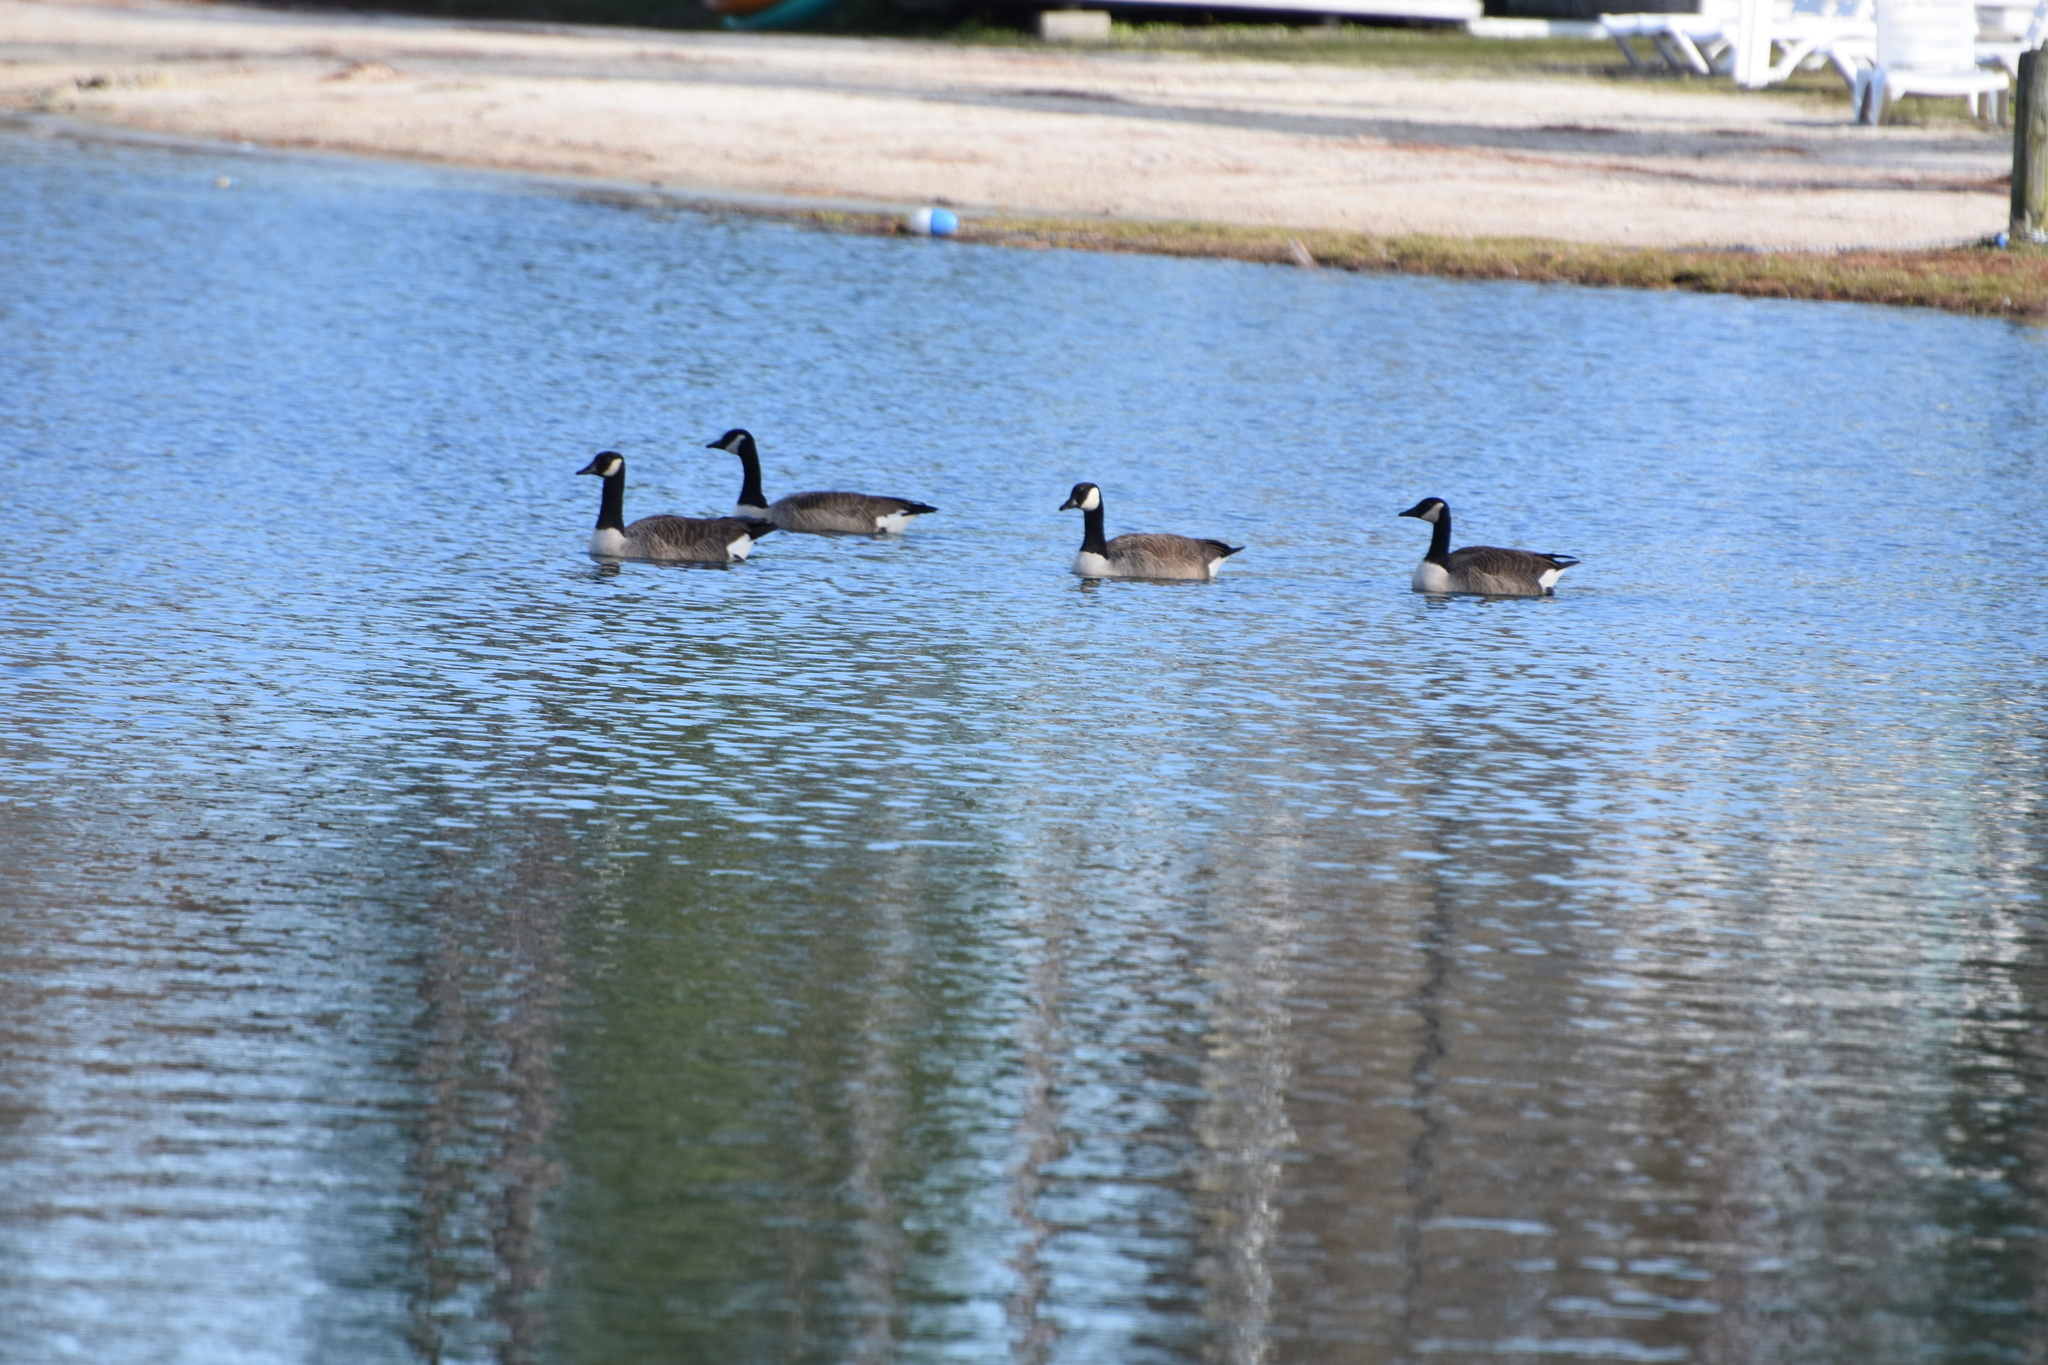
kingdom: Animalia
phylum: Chordata
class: Aves
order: Anseriformes
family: Anatidae
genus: Branta
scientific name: Branta canadensis
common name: Canada goose
